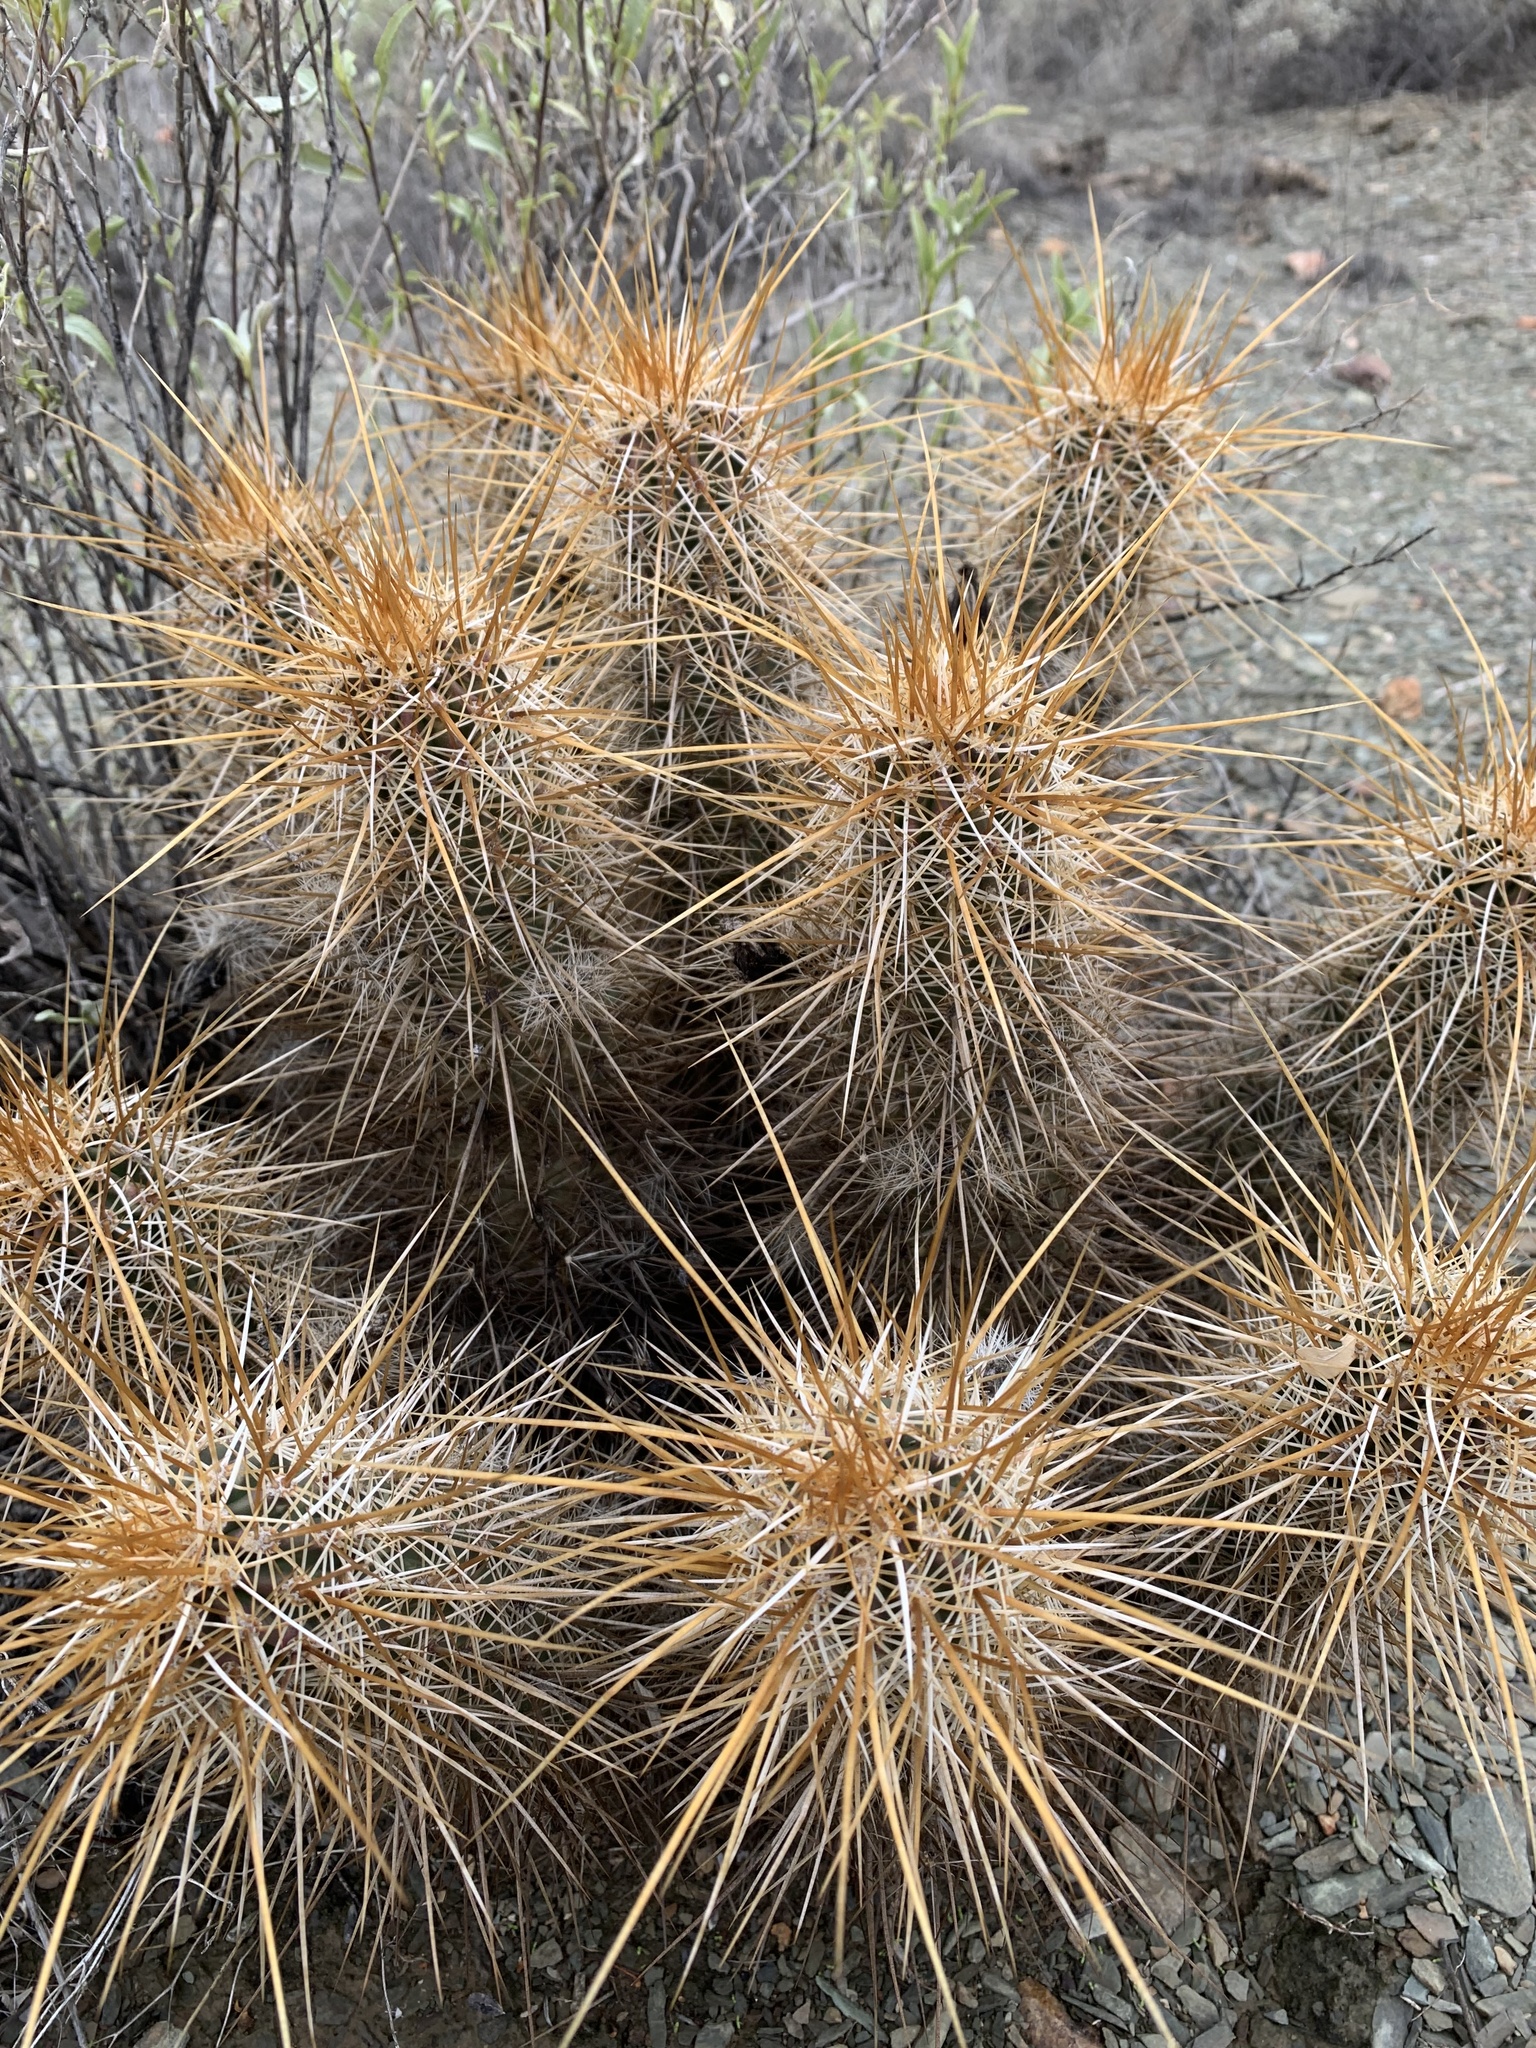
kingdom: Plantae
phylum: Tracheophyta
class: Magnoliopsida
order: Caryophyllales
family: Cactaceae
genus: Echinocereus
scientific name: Echinocereus engelmannii
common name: Engelmann's hedgehog cactus
